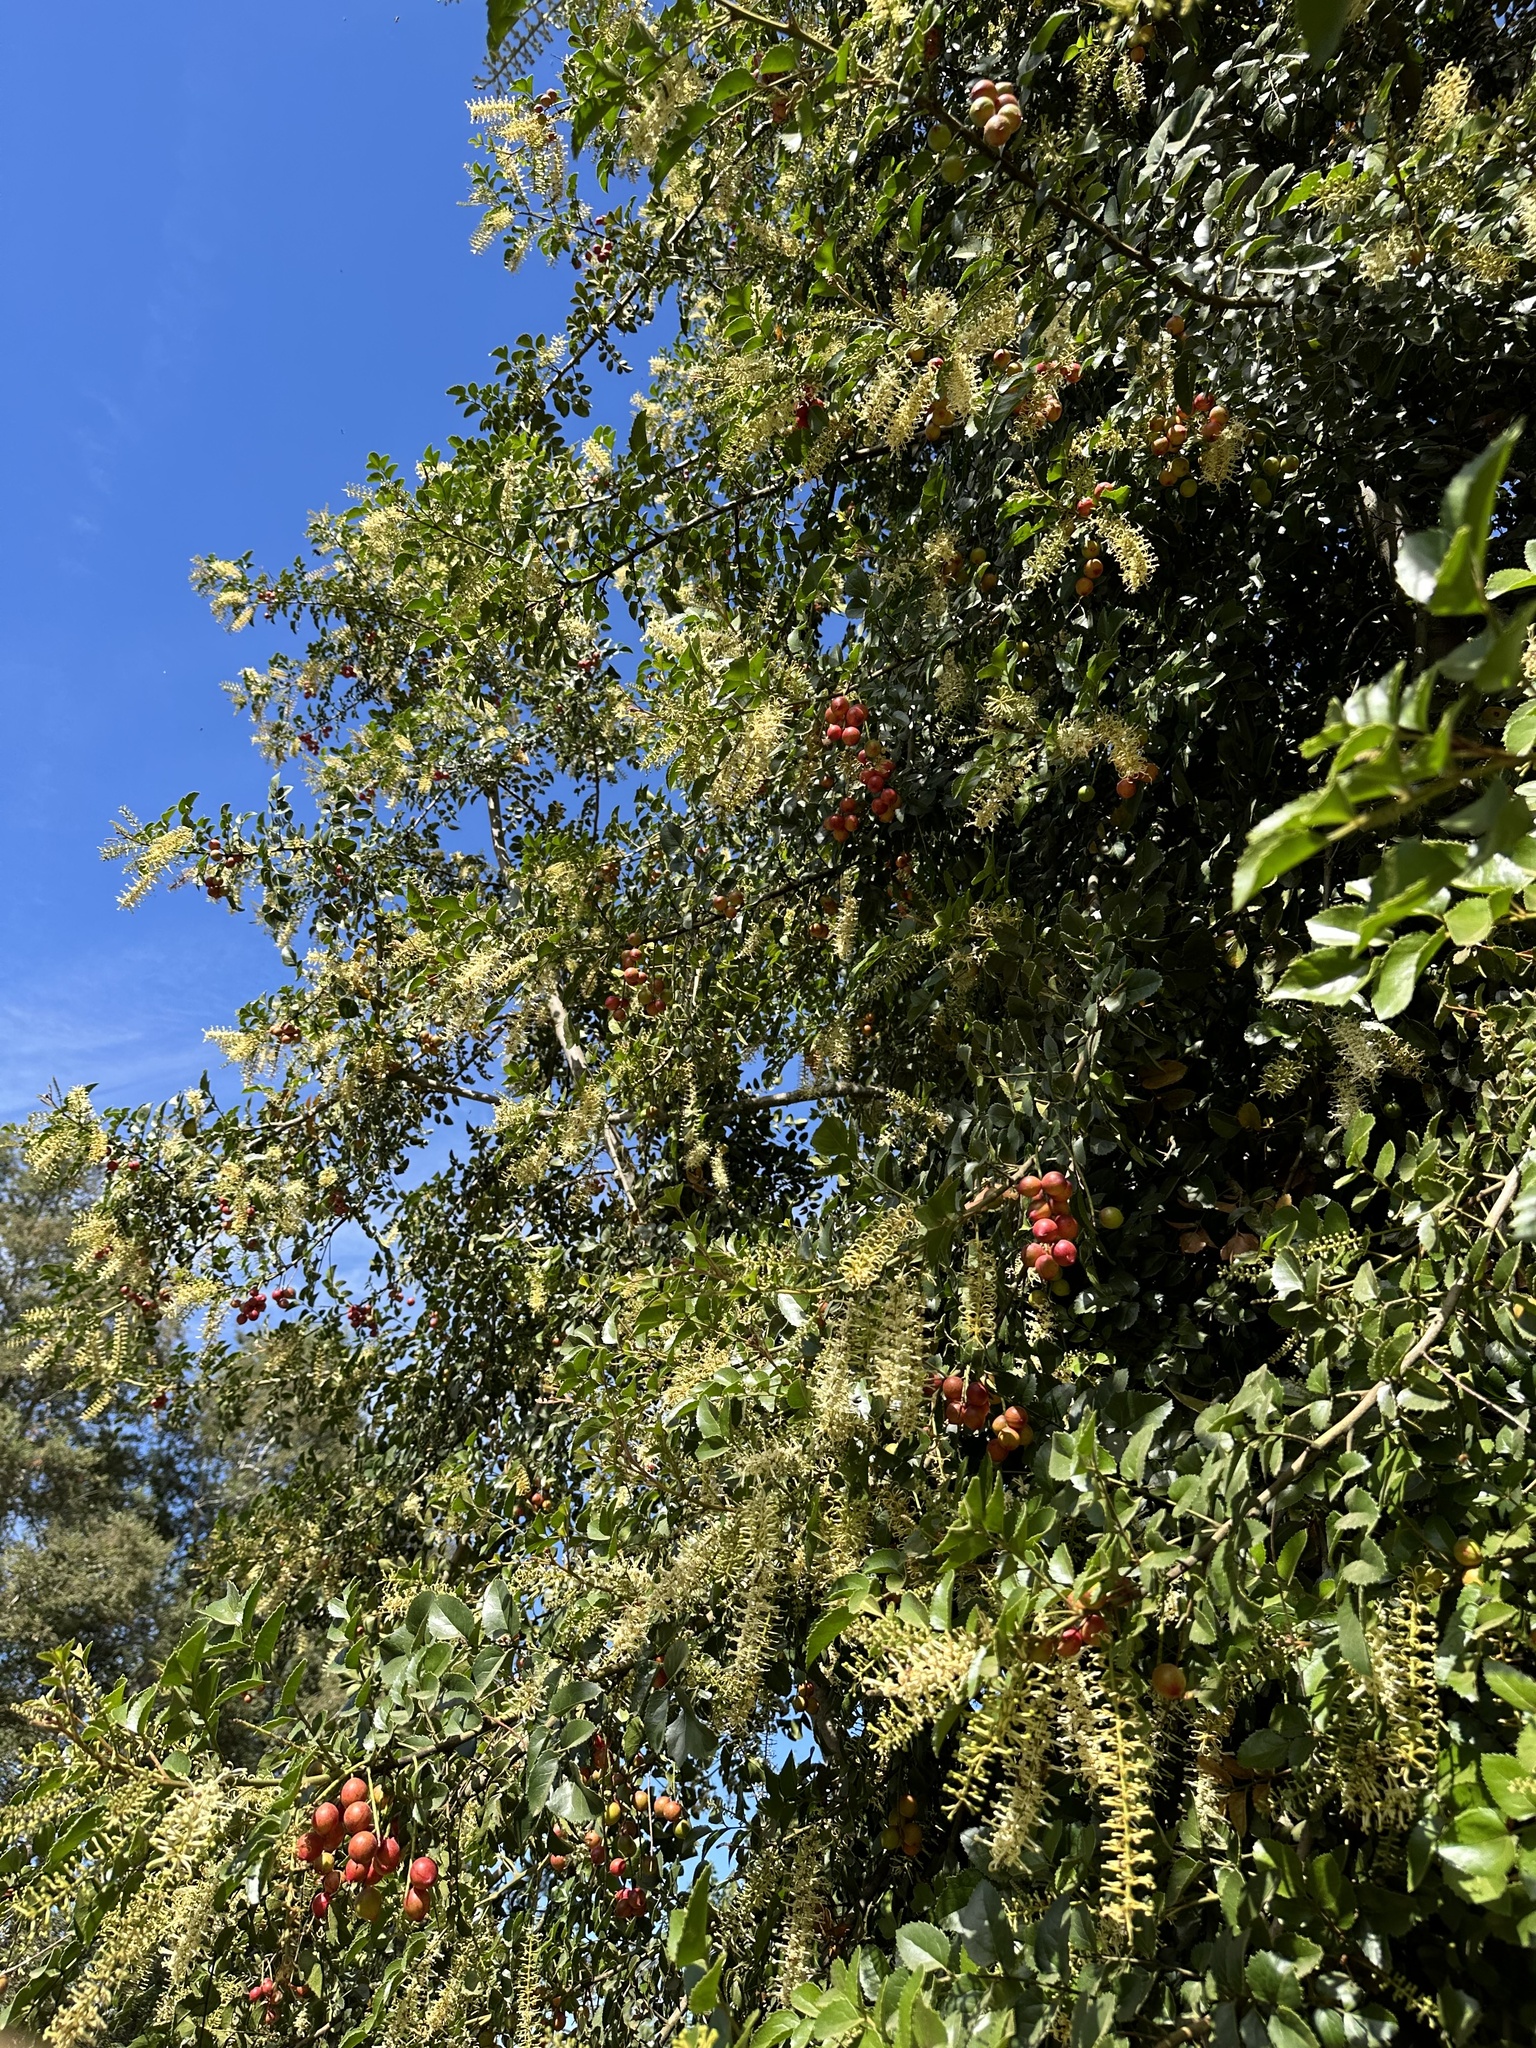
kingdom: Plantae
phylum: Tracheophyta
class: Magnoliopsida
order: Proteales
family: Proteaceae
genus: Gevuina
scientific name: Gevuina avellana
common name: Chilean hazel
